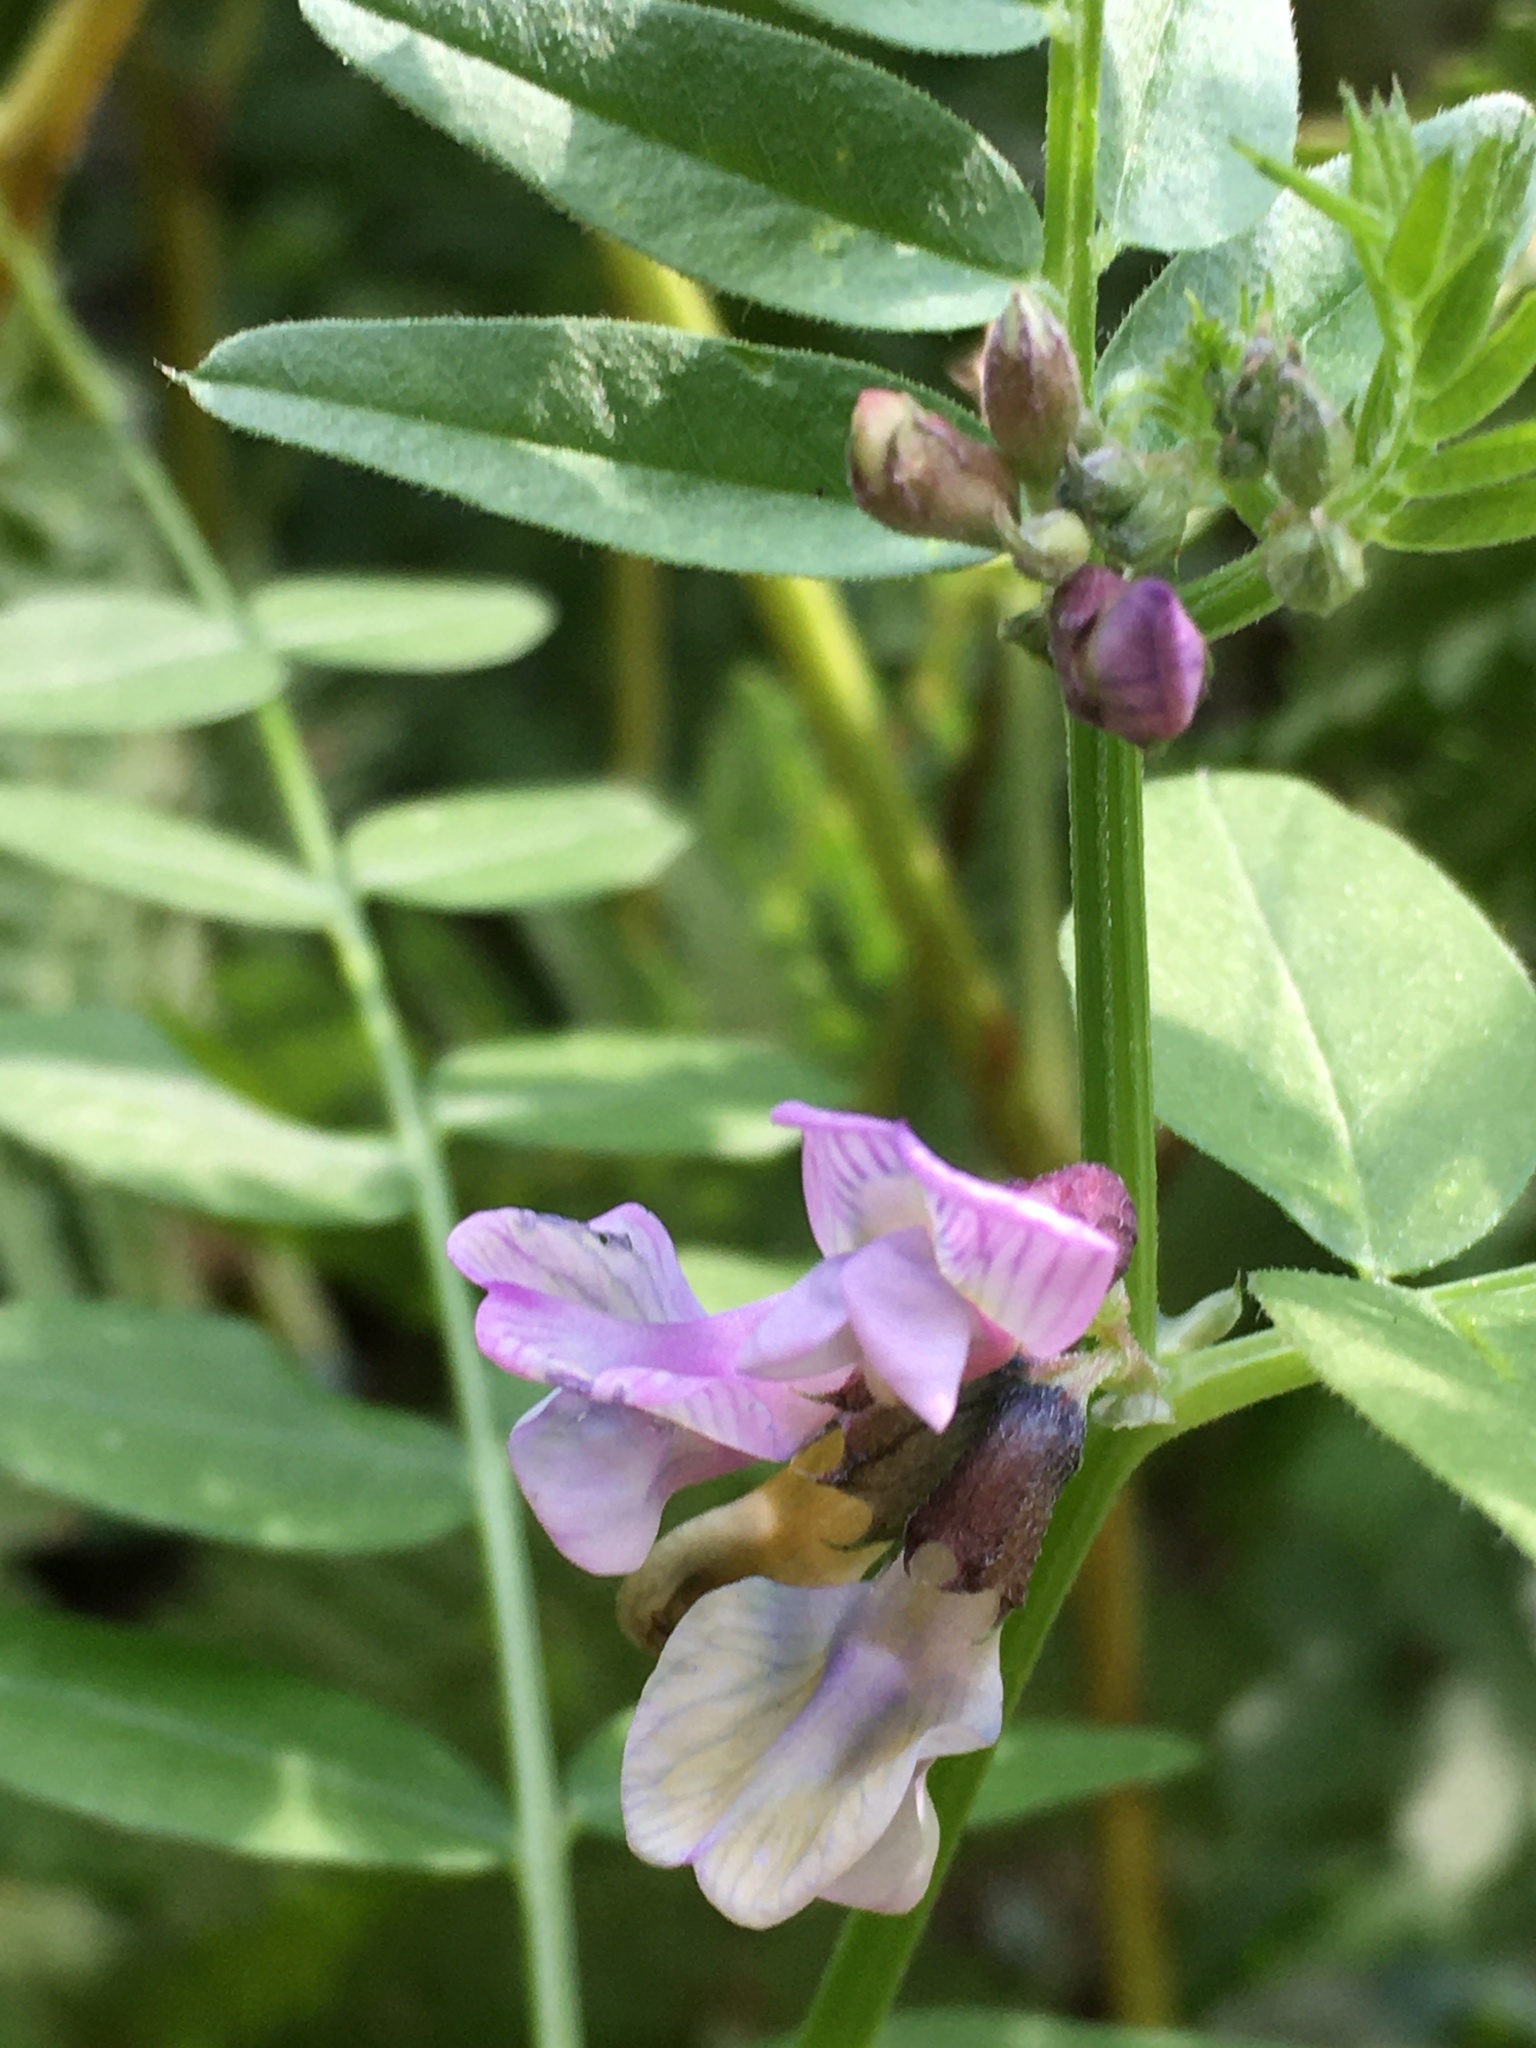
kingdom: Plantae
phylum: Tracheophyta
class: Magnoliopsida
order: Fabales
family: Fabaceae
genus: Vicia
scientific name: Vicia sepium
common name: Bush vetch
